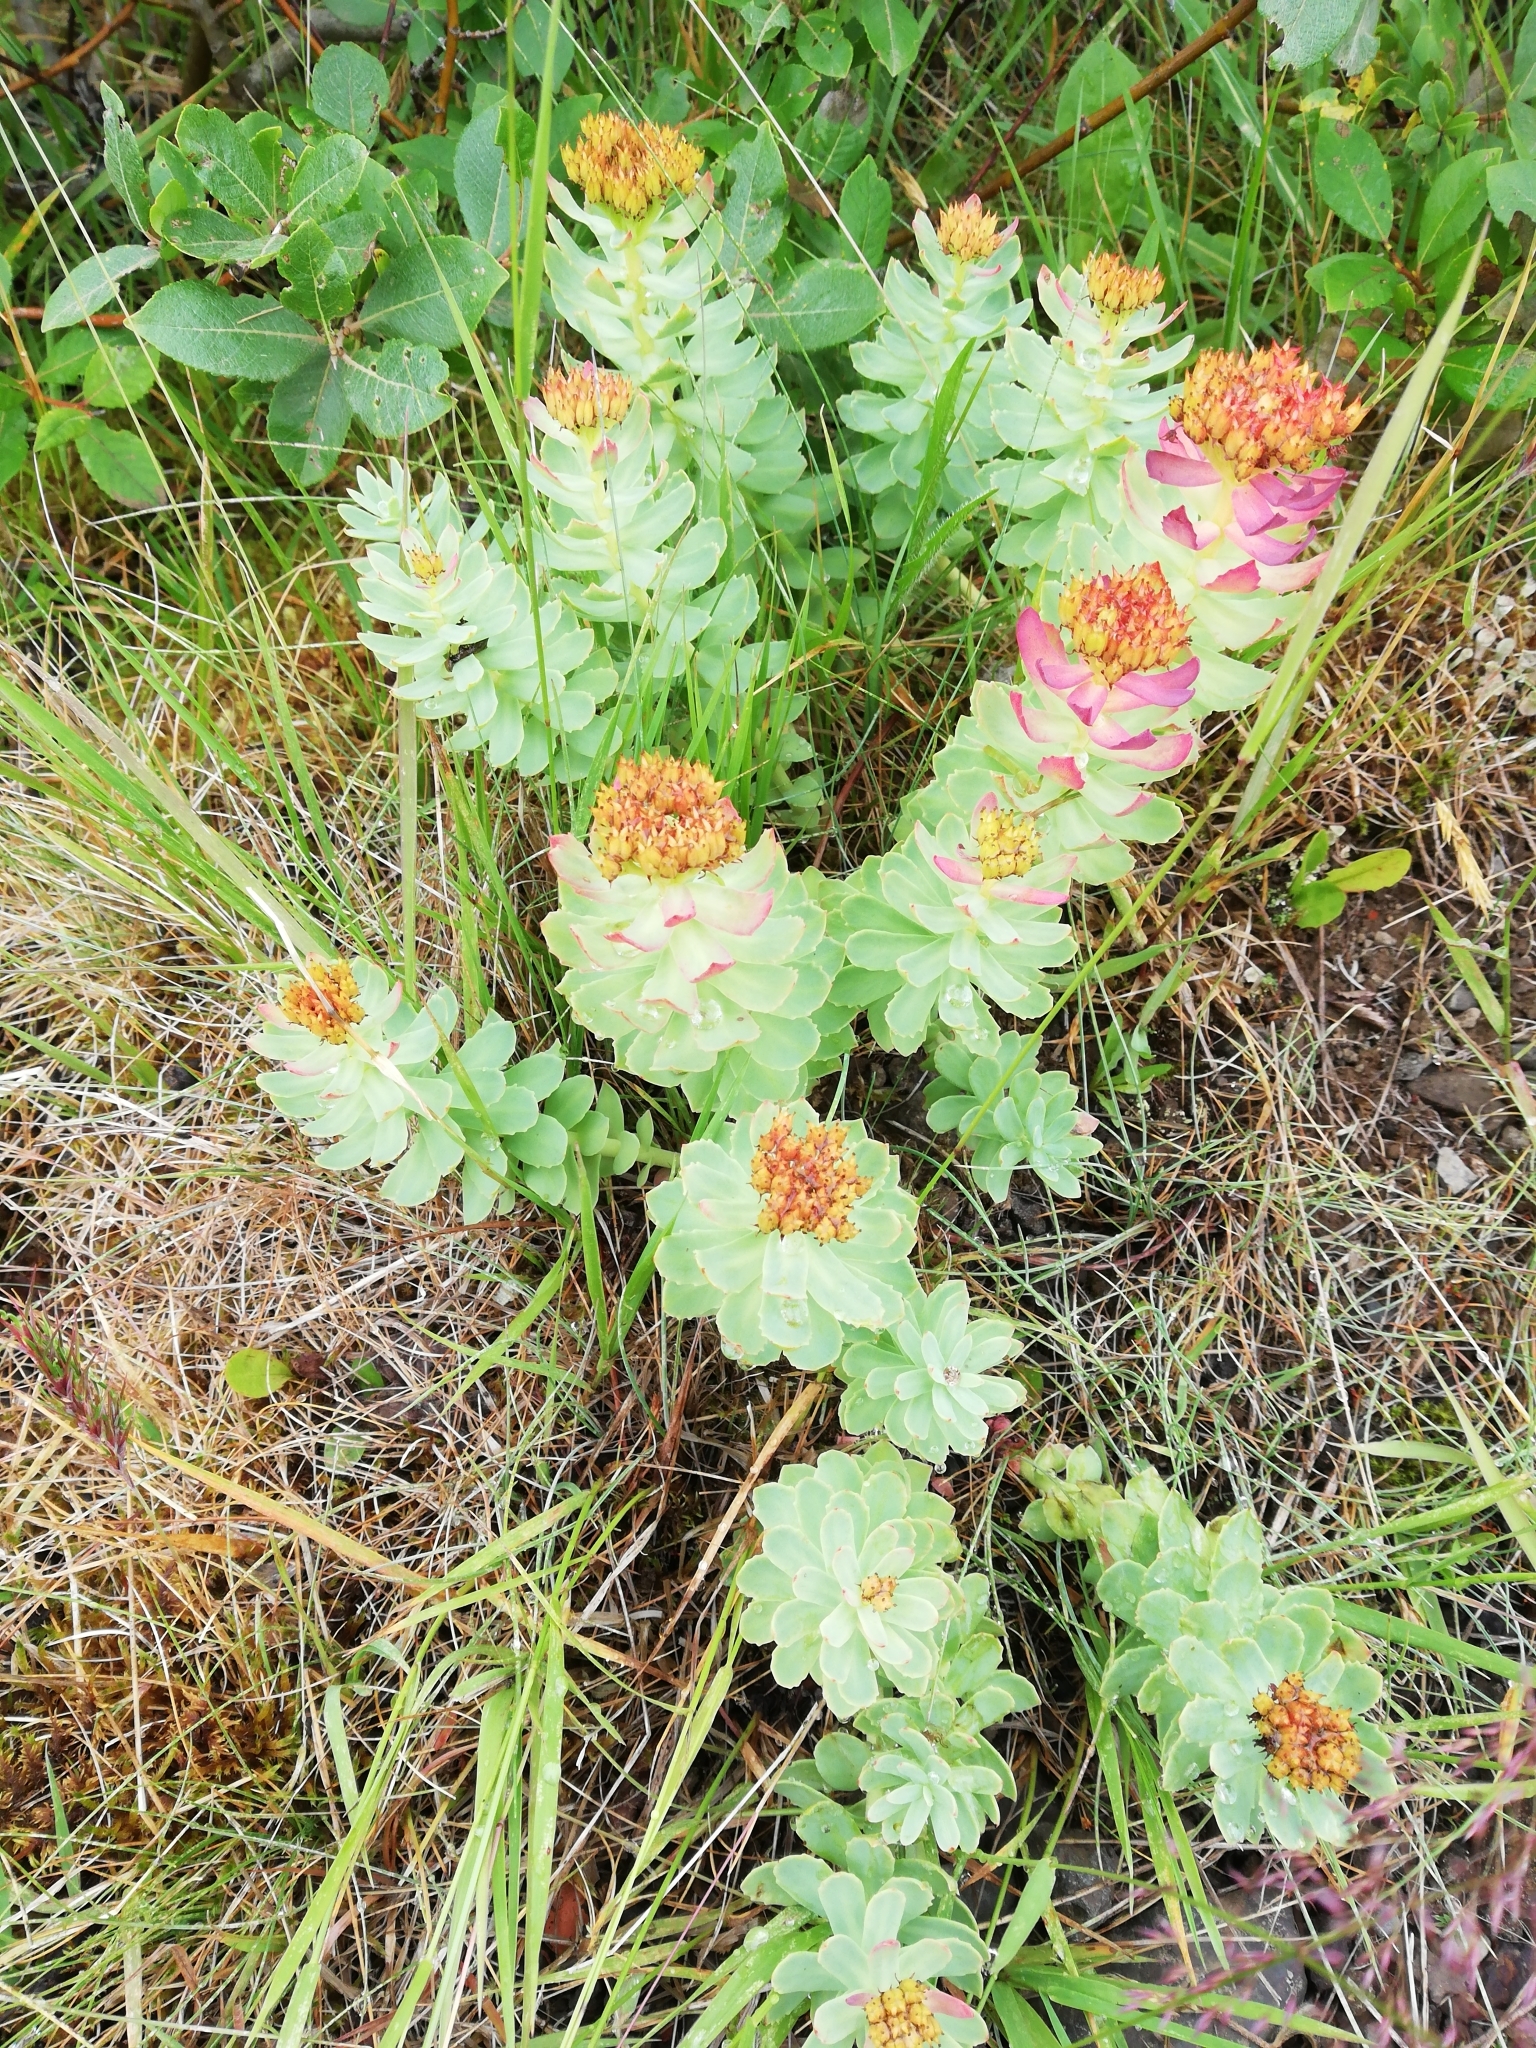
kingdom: Plantae
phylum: Tracheophyta
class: Magnoliopsida
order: Saxifragales
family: Crassulaceae
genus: Rhodiola
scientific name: Rhodiola rosea
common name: Roseroot
